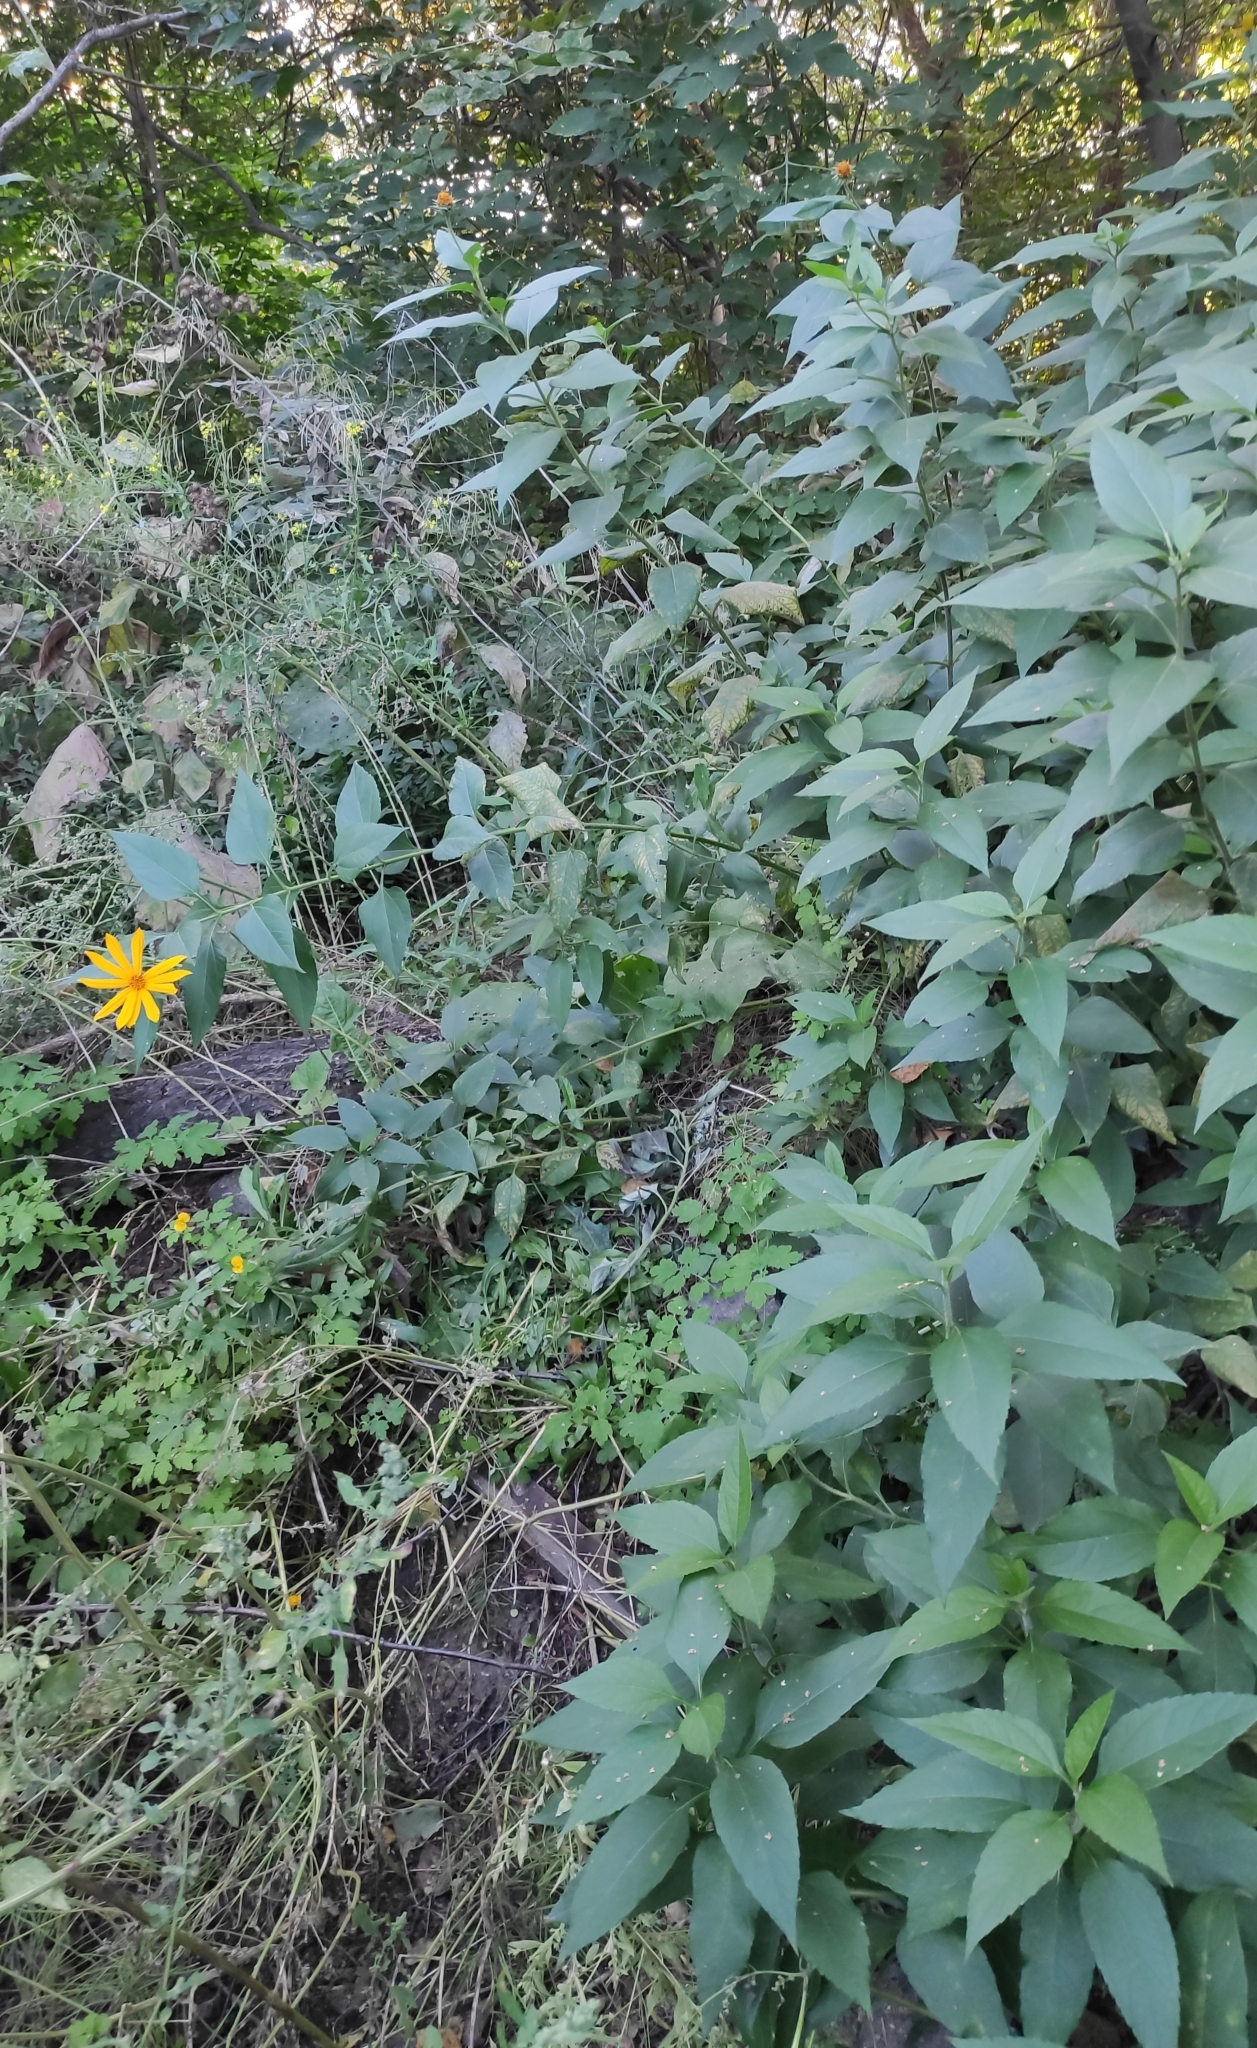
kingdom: Plantae
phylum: Tracheophyta
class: Magnoliopsida
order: Asterales
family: Asteraceae
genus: Helianthus
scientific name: Helianthus tuberosus
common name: Jerusalem artichoke
